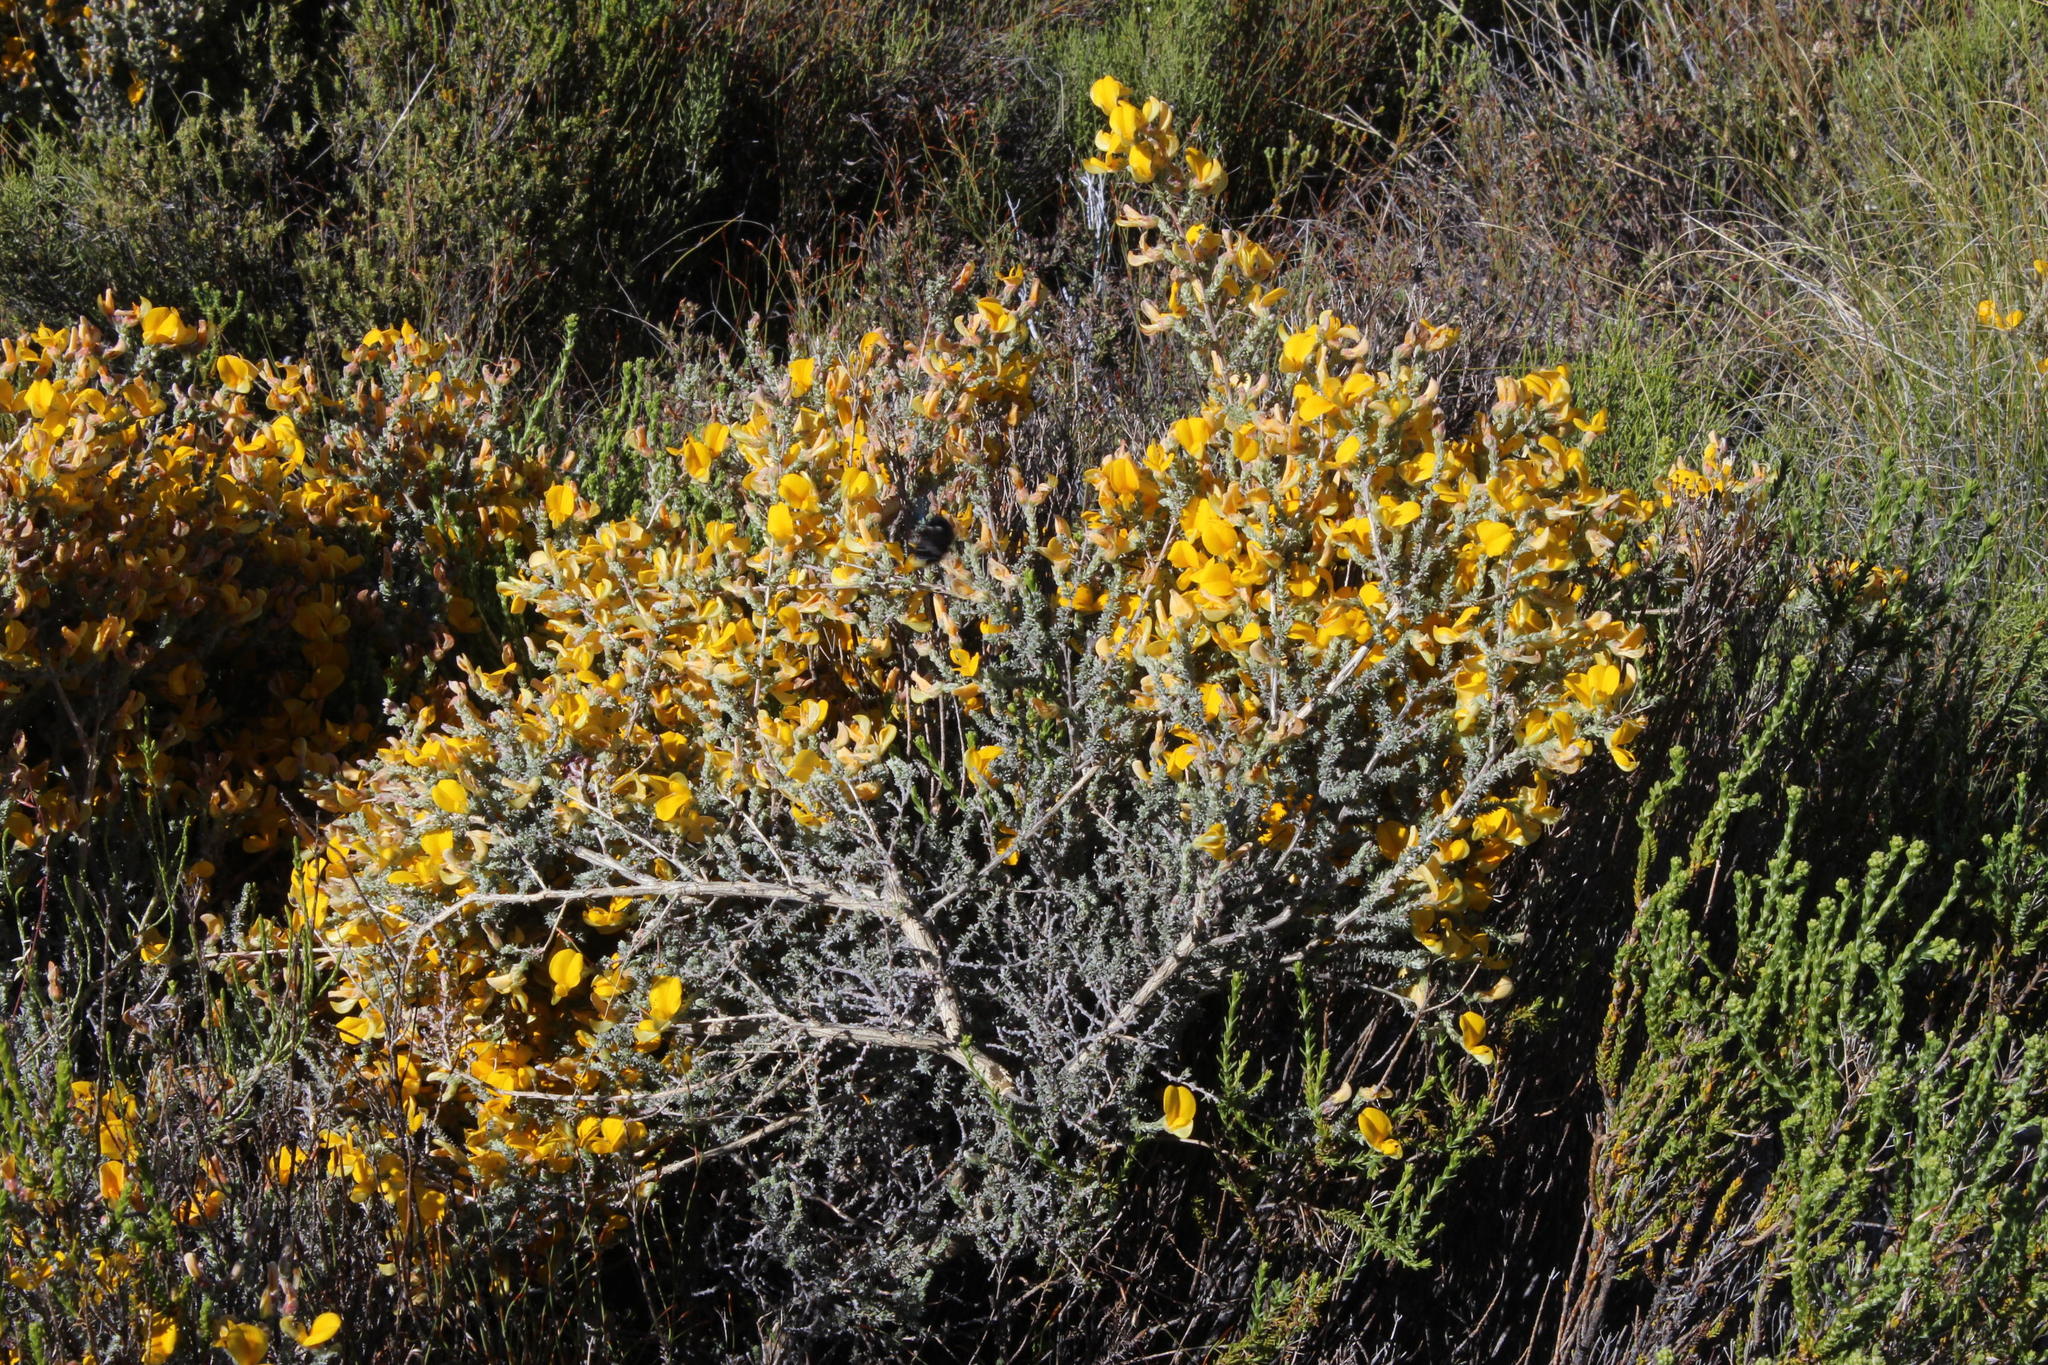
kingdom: Plantae
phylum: Tracheophyta
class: Magnoliopsida
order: Fabales
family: Fabaceae
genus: Aspalathus
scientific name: Aspalathus triquetra
